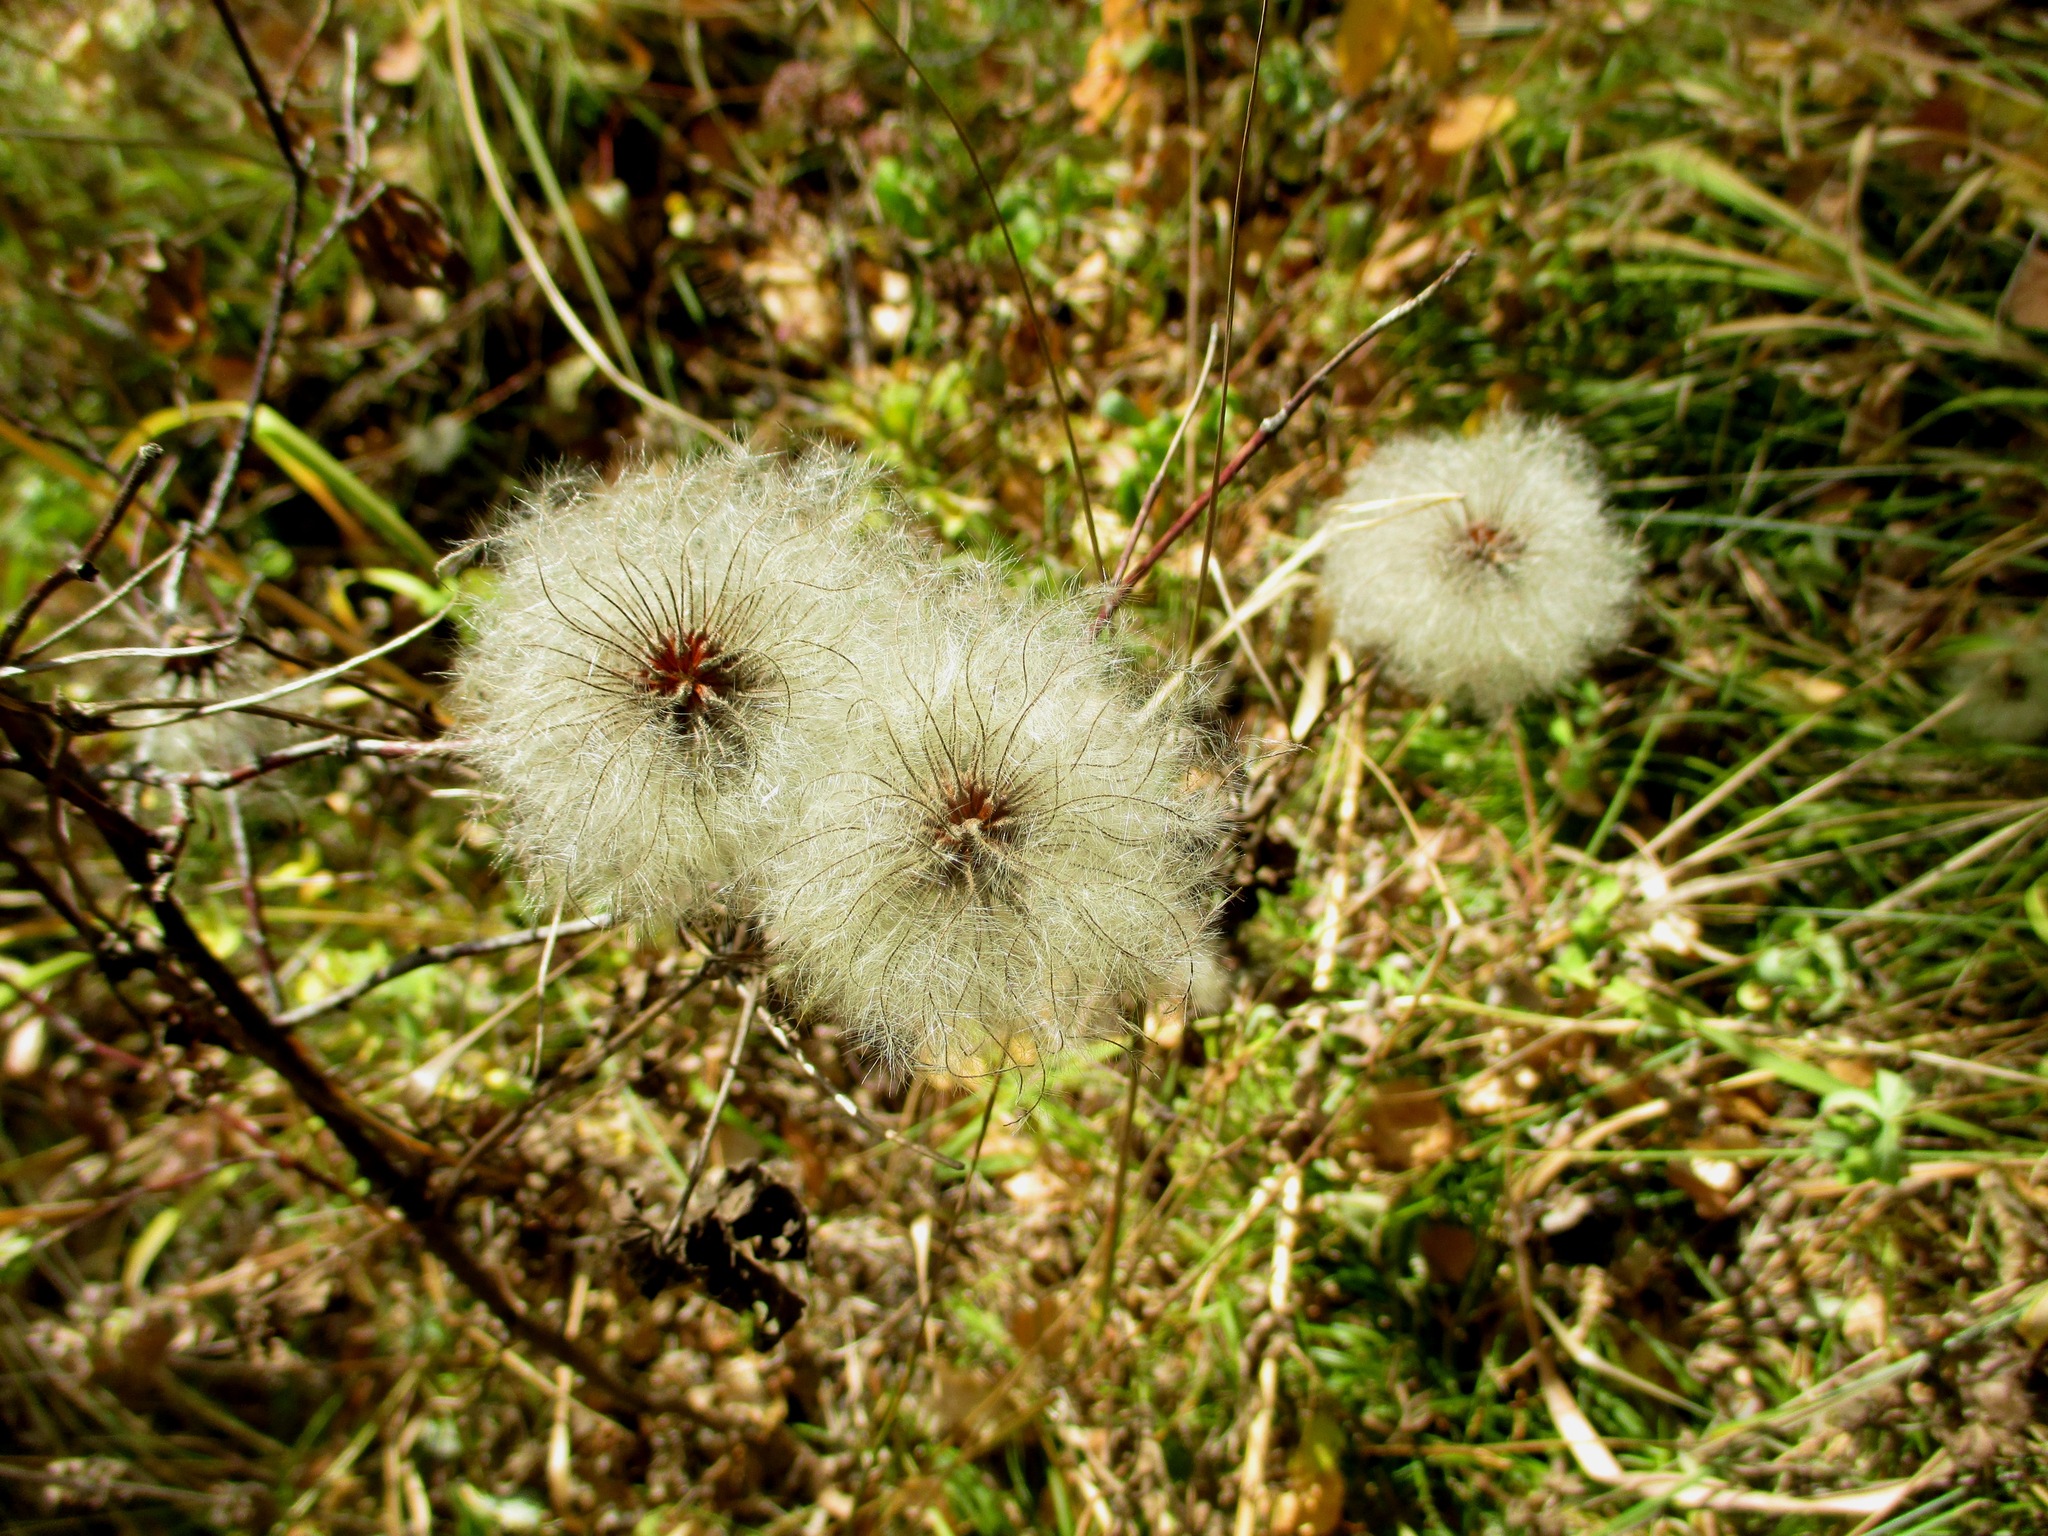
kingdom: Plantae
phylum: Tracheophyta
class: Magnoliopsida
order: Ranunculales
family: Ranunculaceae
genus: Clematis
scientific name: Clematis sibirica
